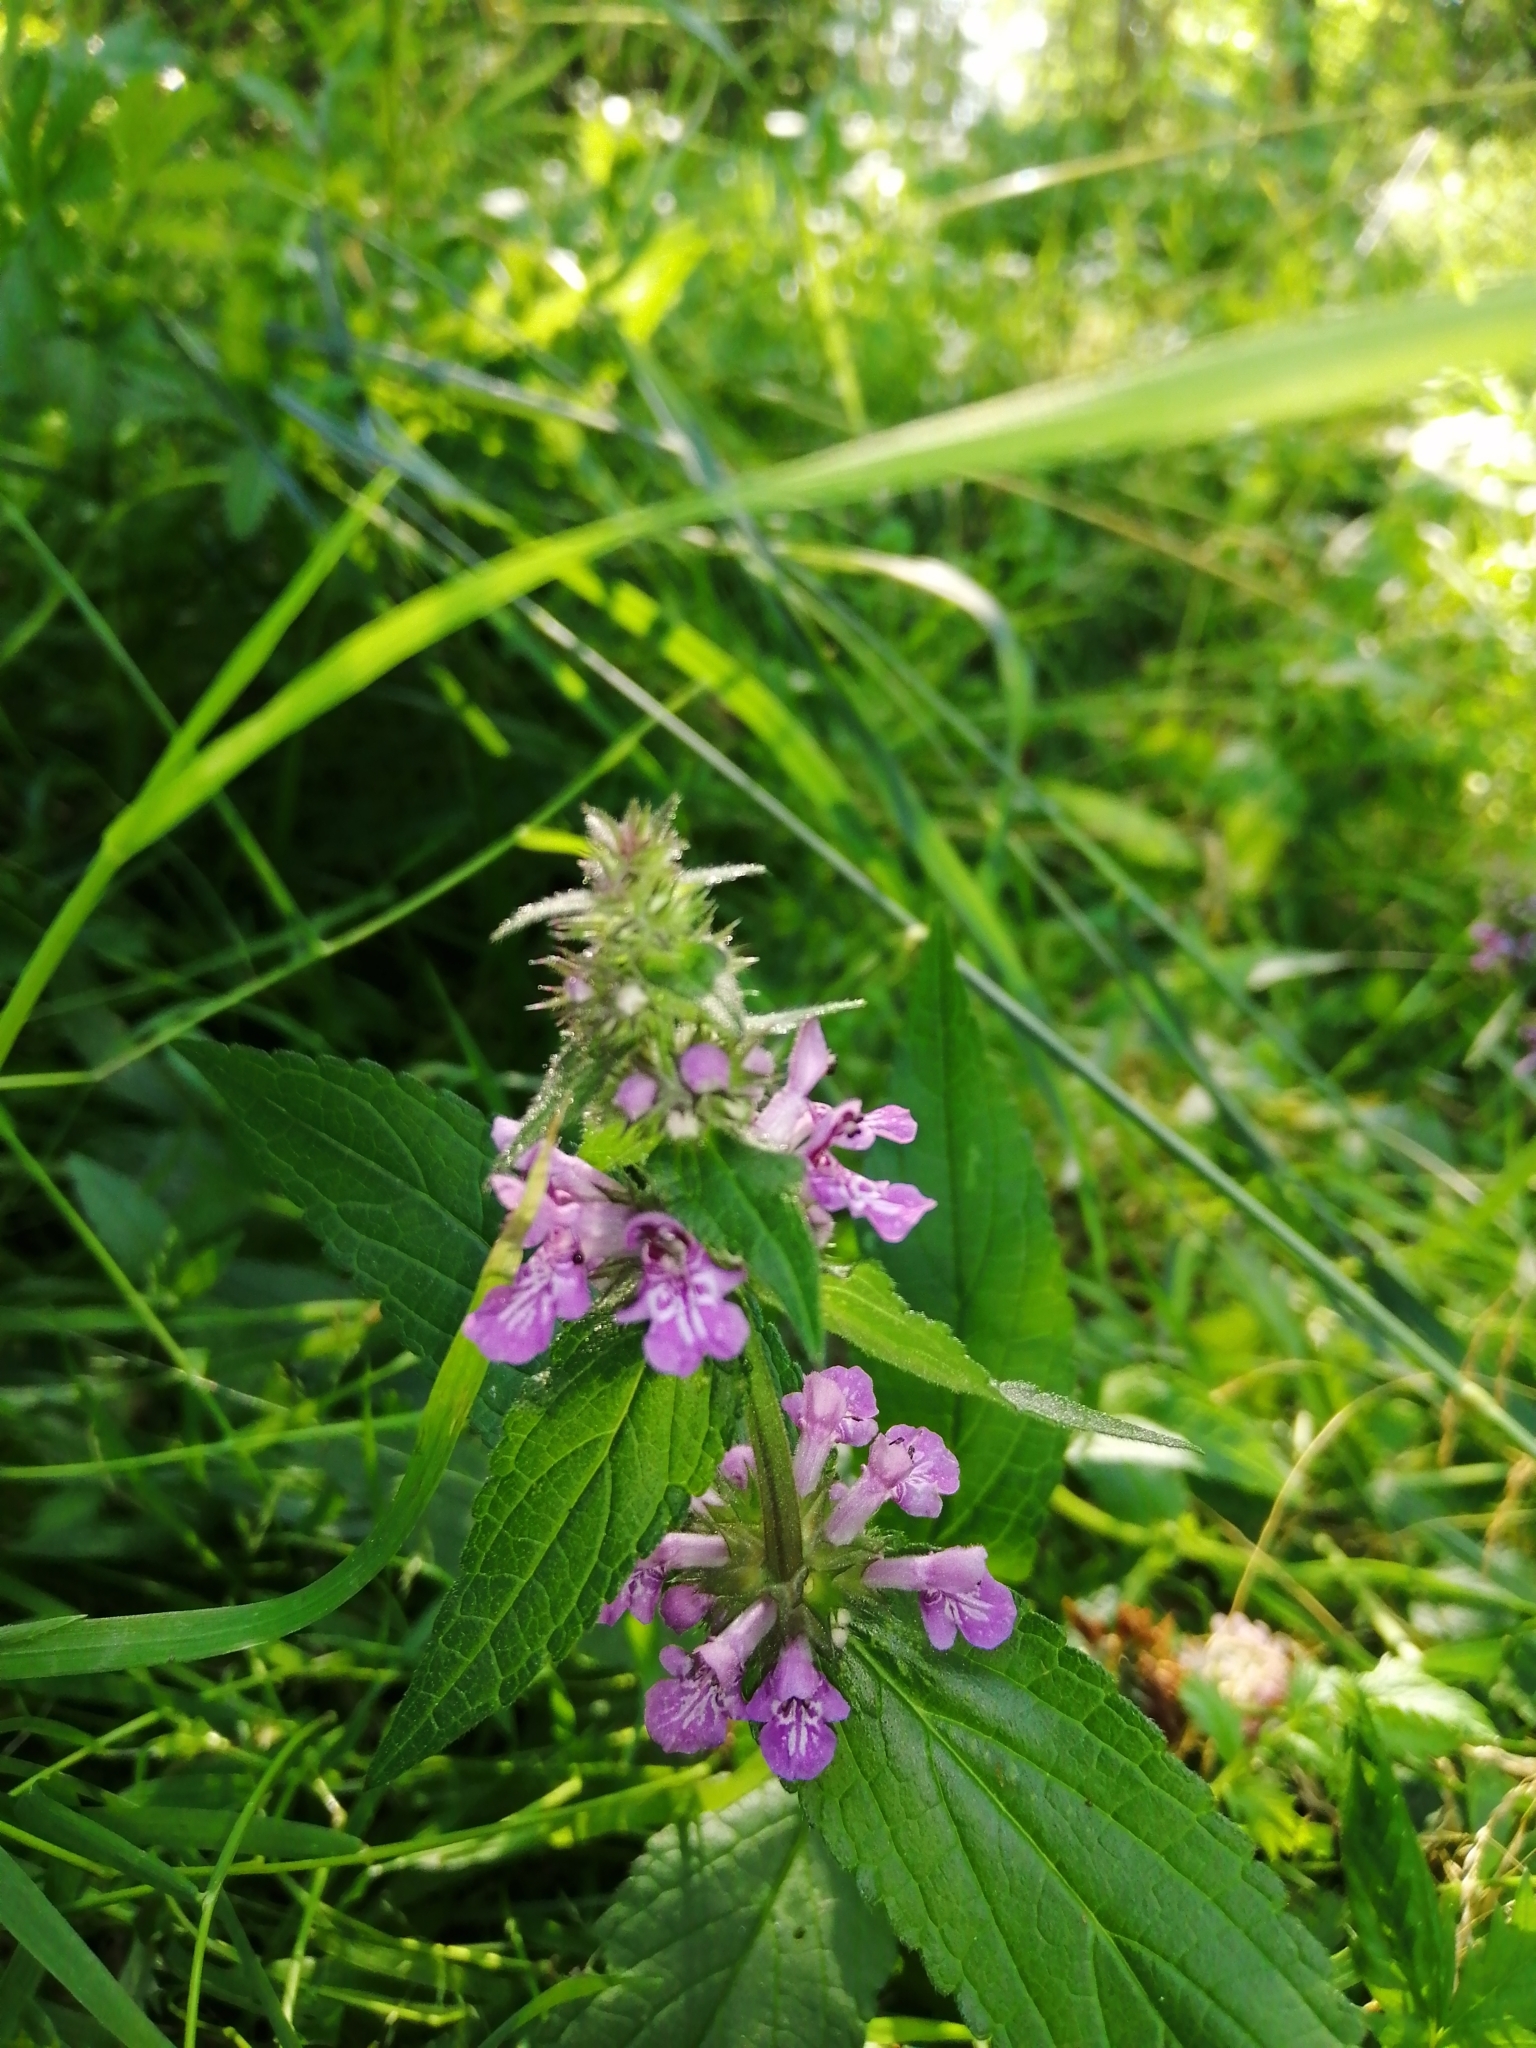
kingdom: Plantae
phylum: Tracheophyta
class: Magnoliopsida
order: Lamiales
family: Lamiaceae
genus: Stachys
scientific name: Stachys palustris
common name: Marsh woundwort
